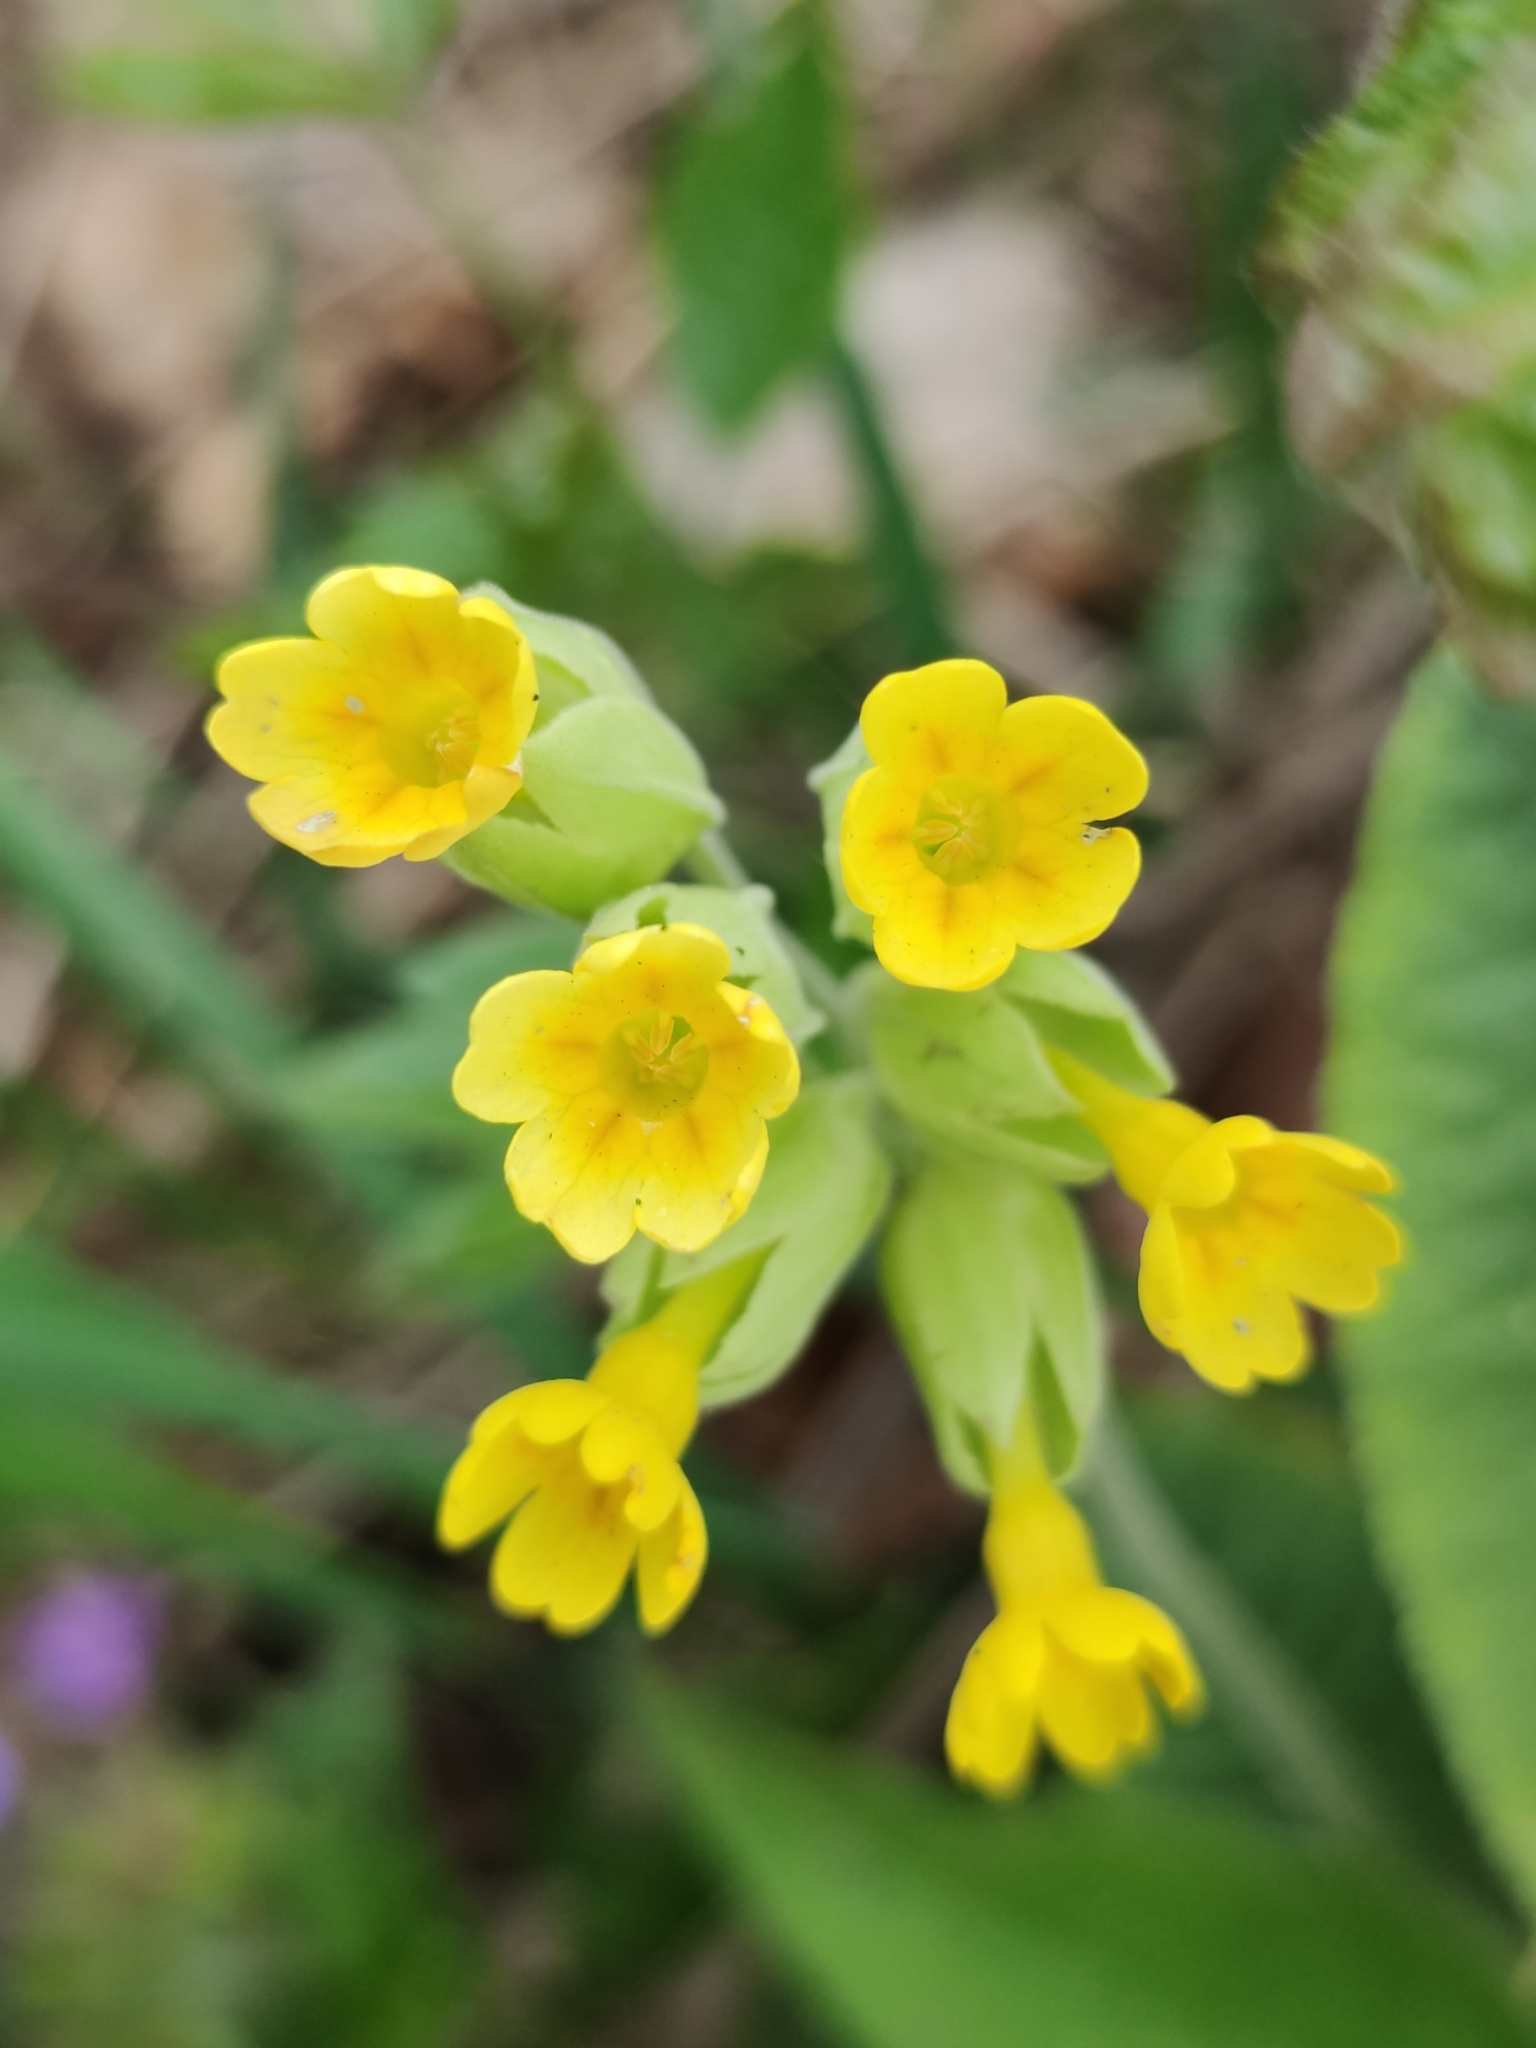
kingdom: Plantae
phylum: Tracheophyta
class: Magnoliopsida
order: Ericales
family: Primulaceae
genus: Primula
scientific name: Primula veris
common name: Cowslip
